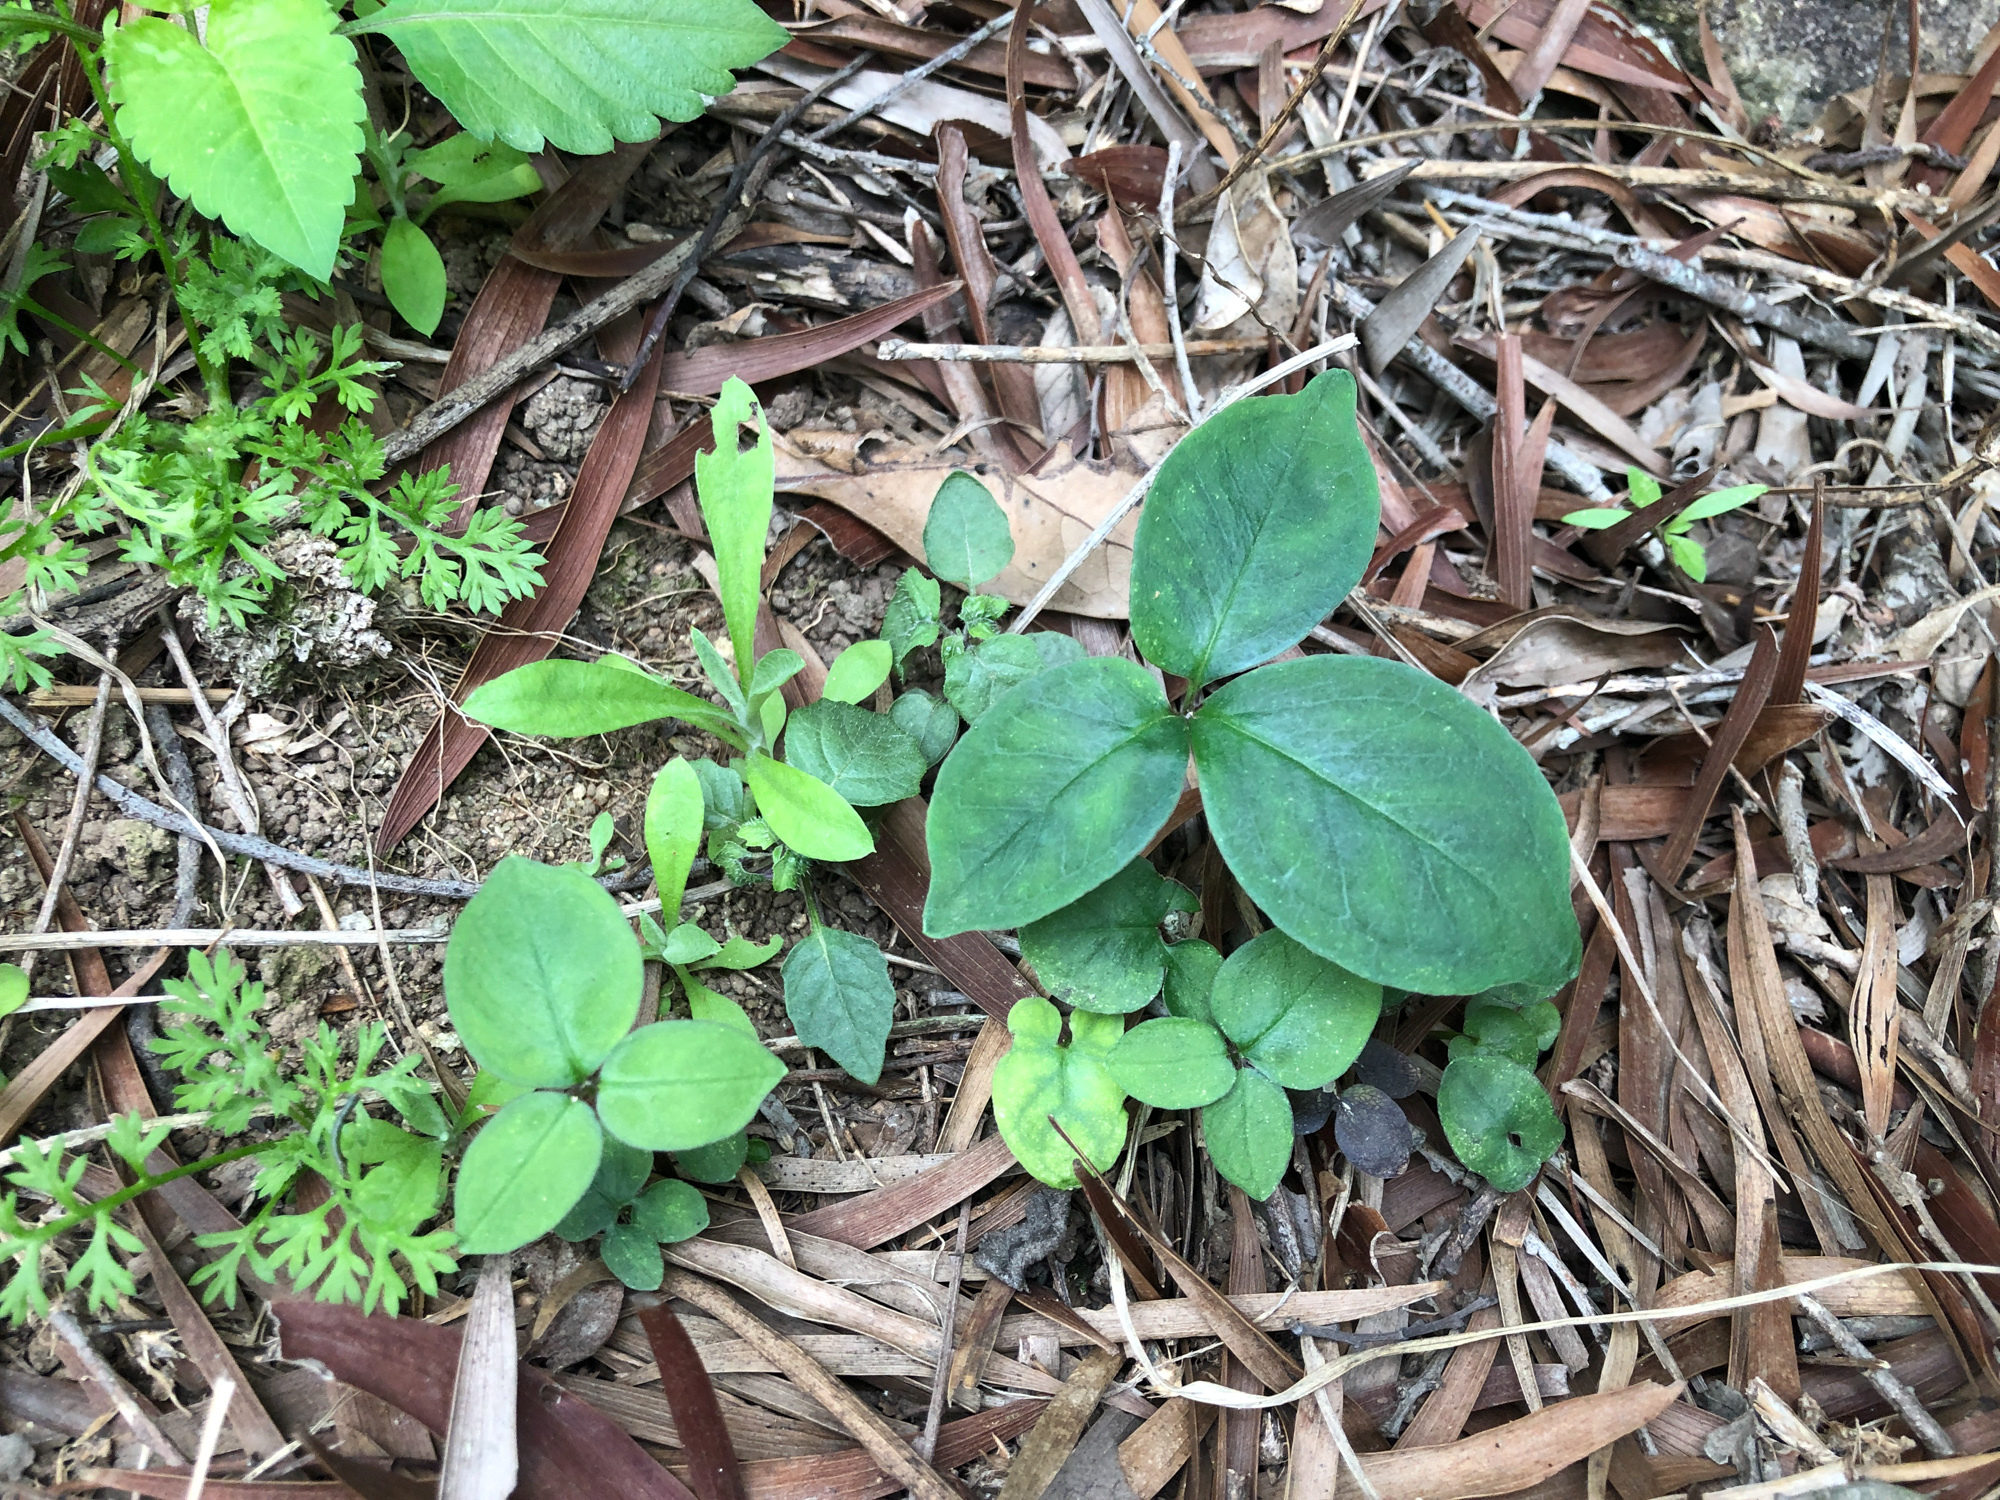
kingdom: Plantae
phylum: Tracheophyta
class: Liliopsida
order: Alismatales
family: Araceae
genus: Pinellia
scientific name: Pinellia ternata
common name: Pinellia
